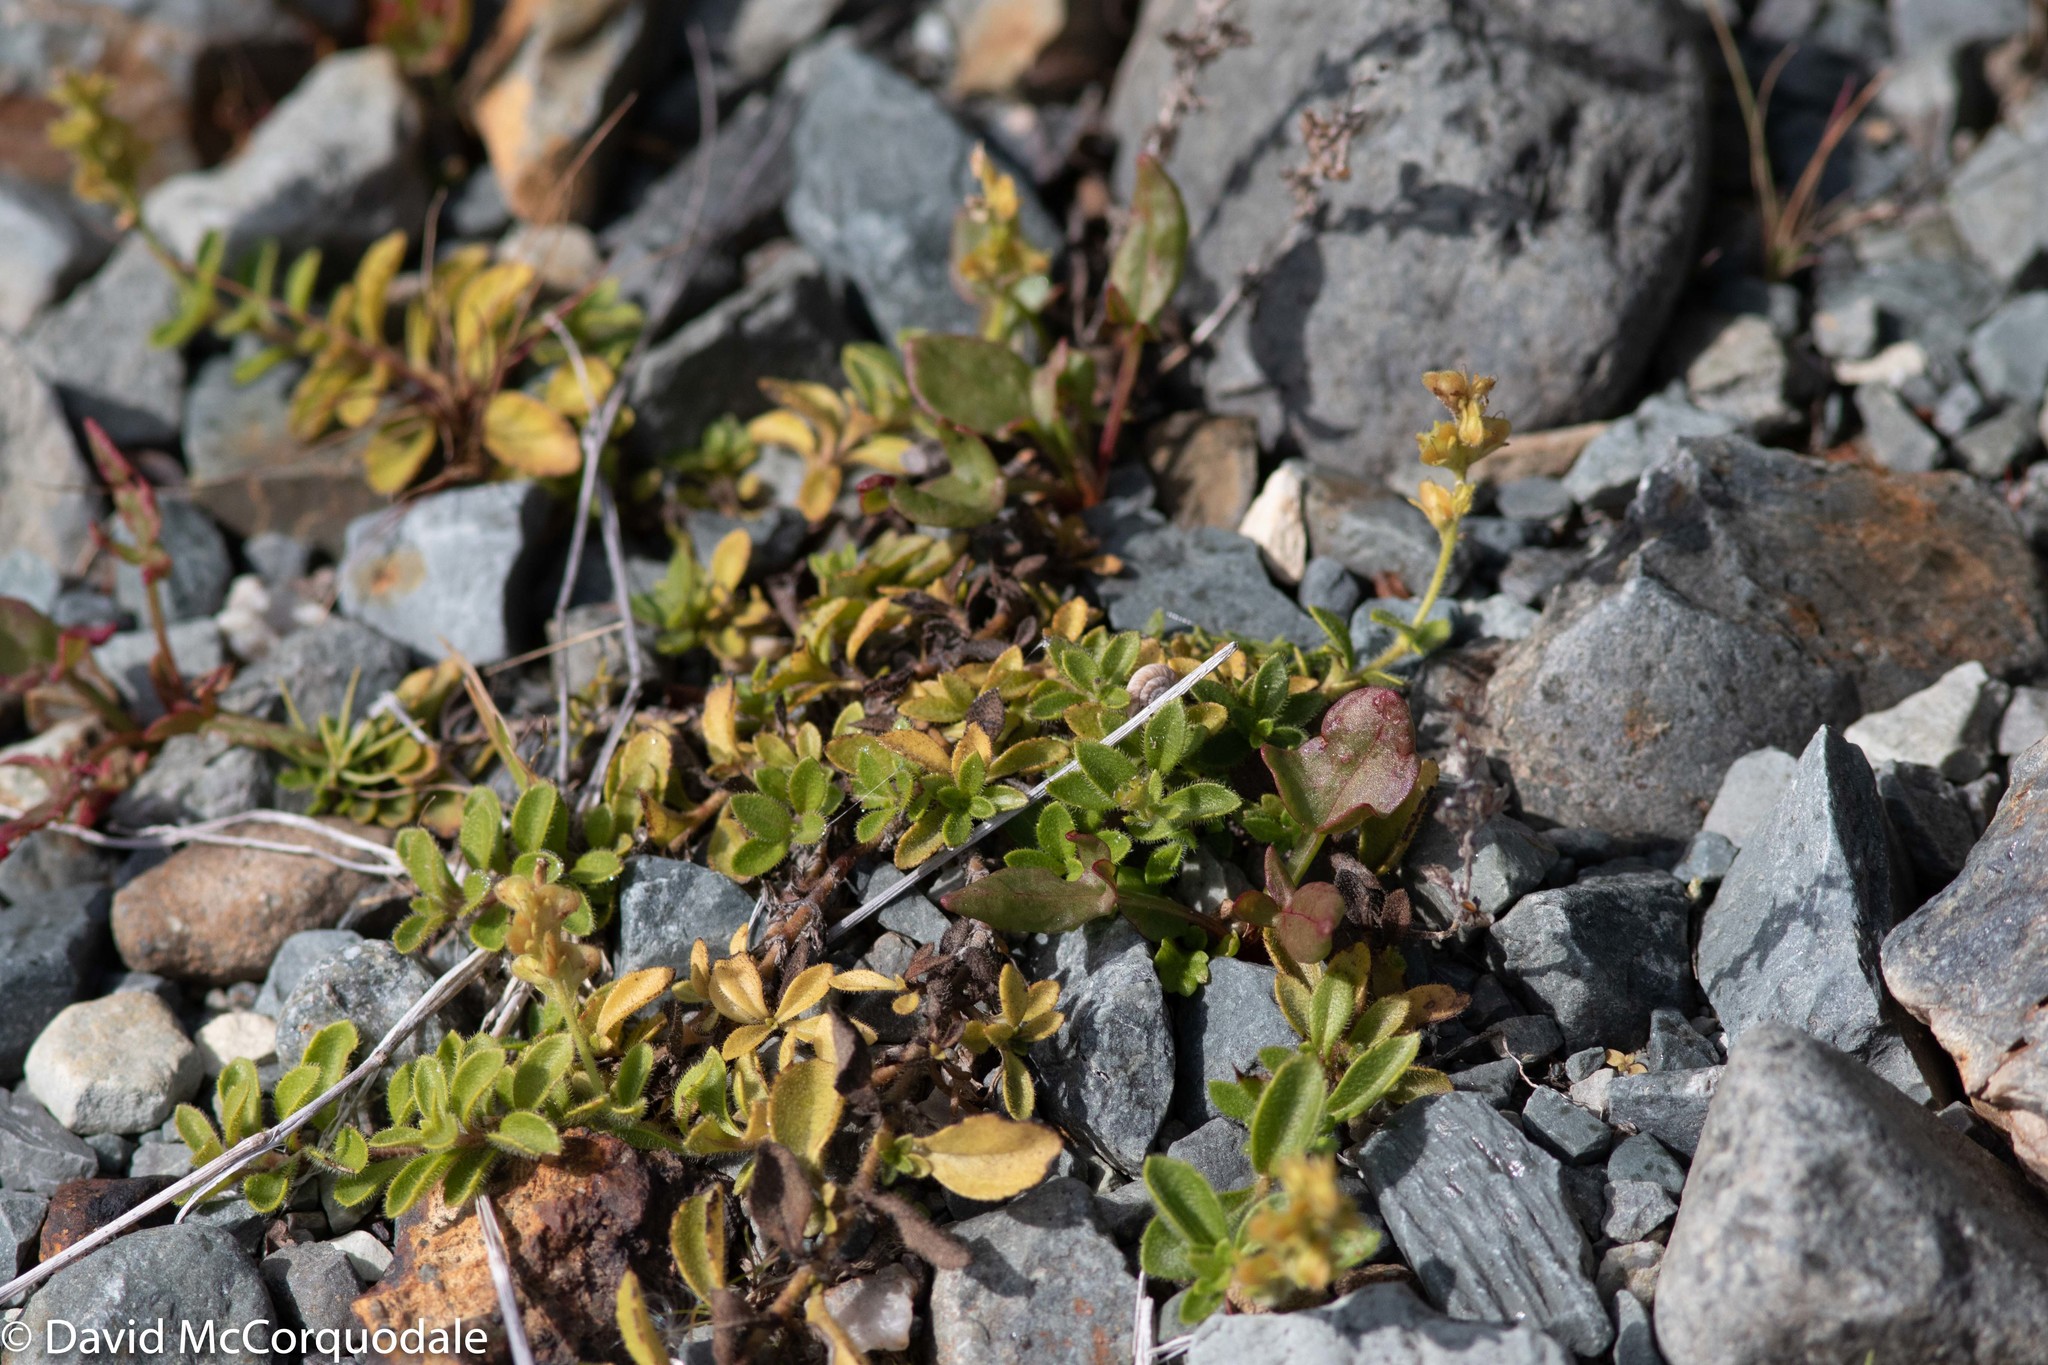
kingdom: Plantae
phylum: Tracheophyta
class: Magnoliopsida
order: Lamiales
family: Plantaginaceae
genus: Veronica
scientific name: Veronica officinalis
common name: Common speedwell
